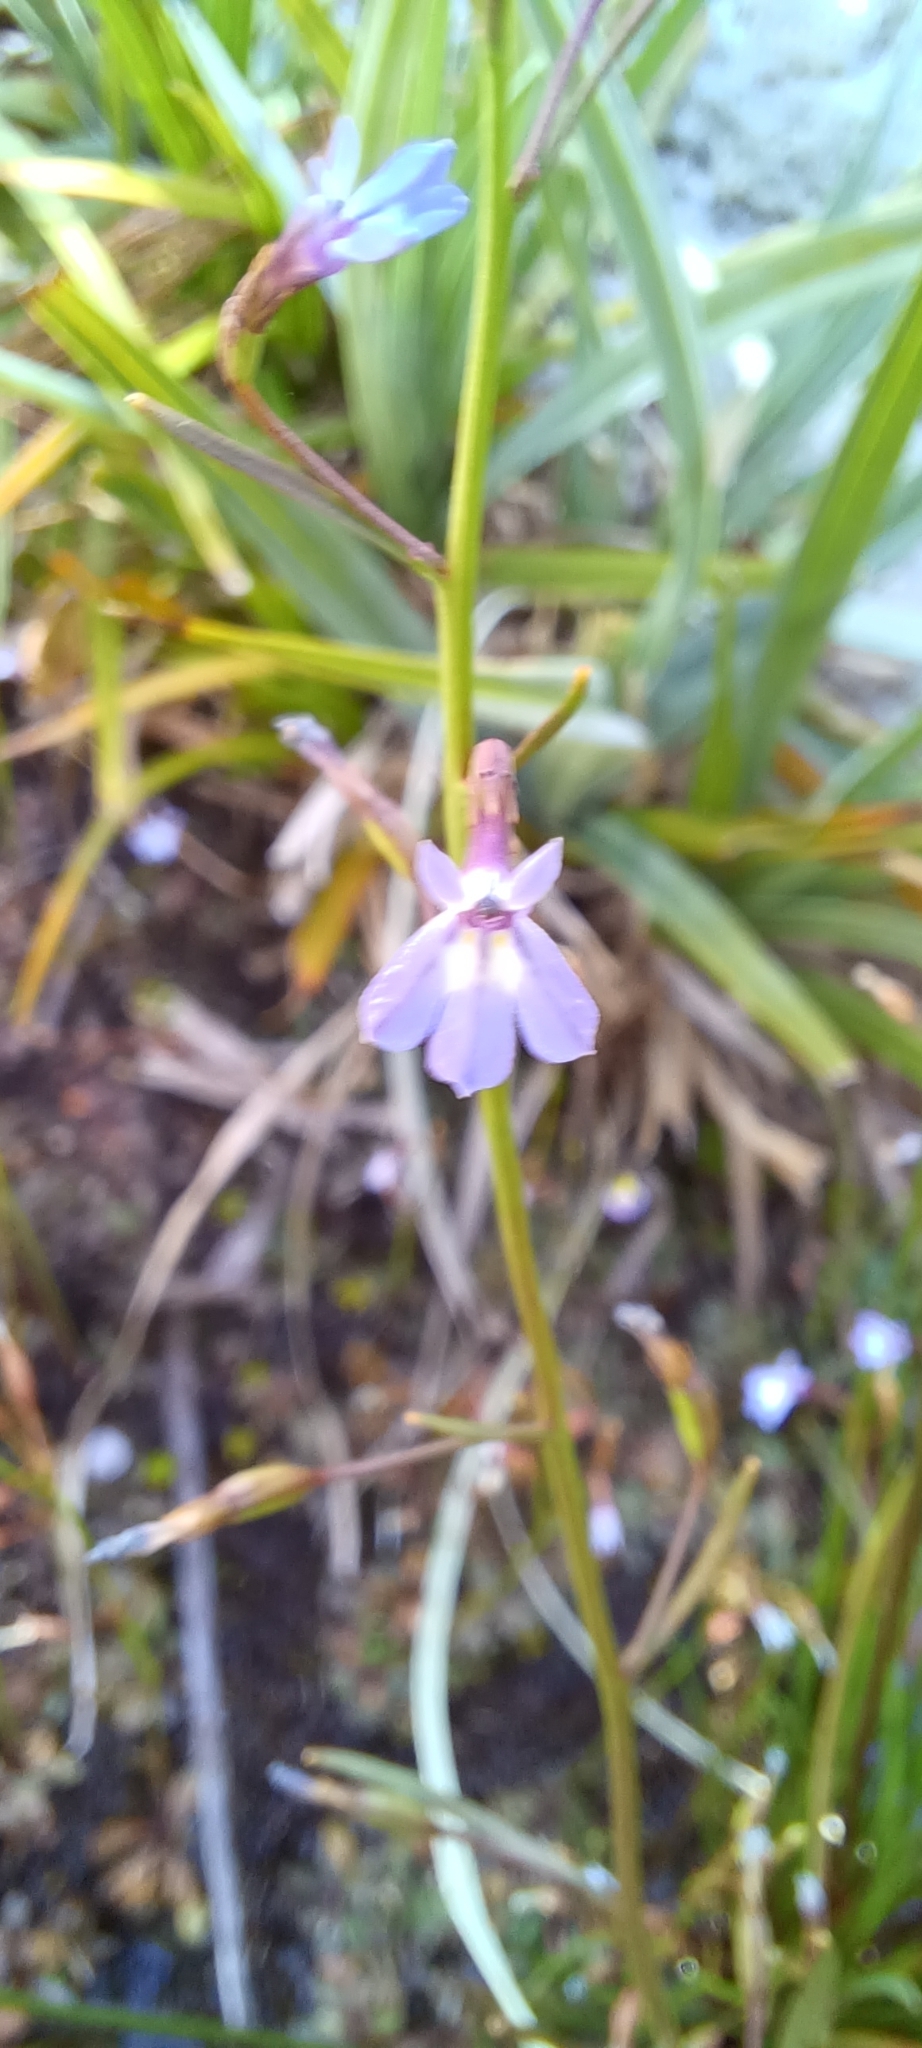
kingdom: Plantae
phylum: Tracheophyta
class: Magnoliopsida
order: Asterales
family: Campanulaceae
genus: Wimmerella
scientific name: Wimmerella arabidea
